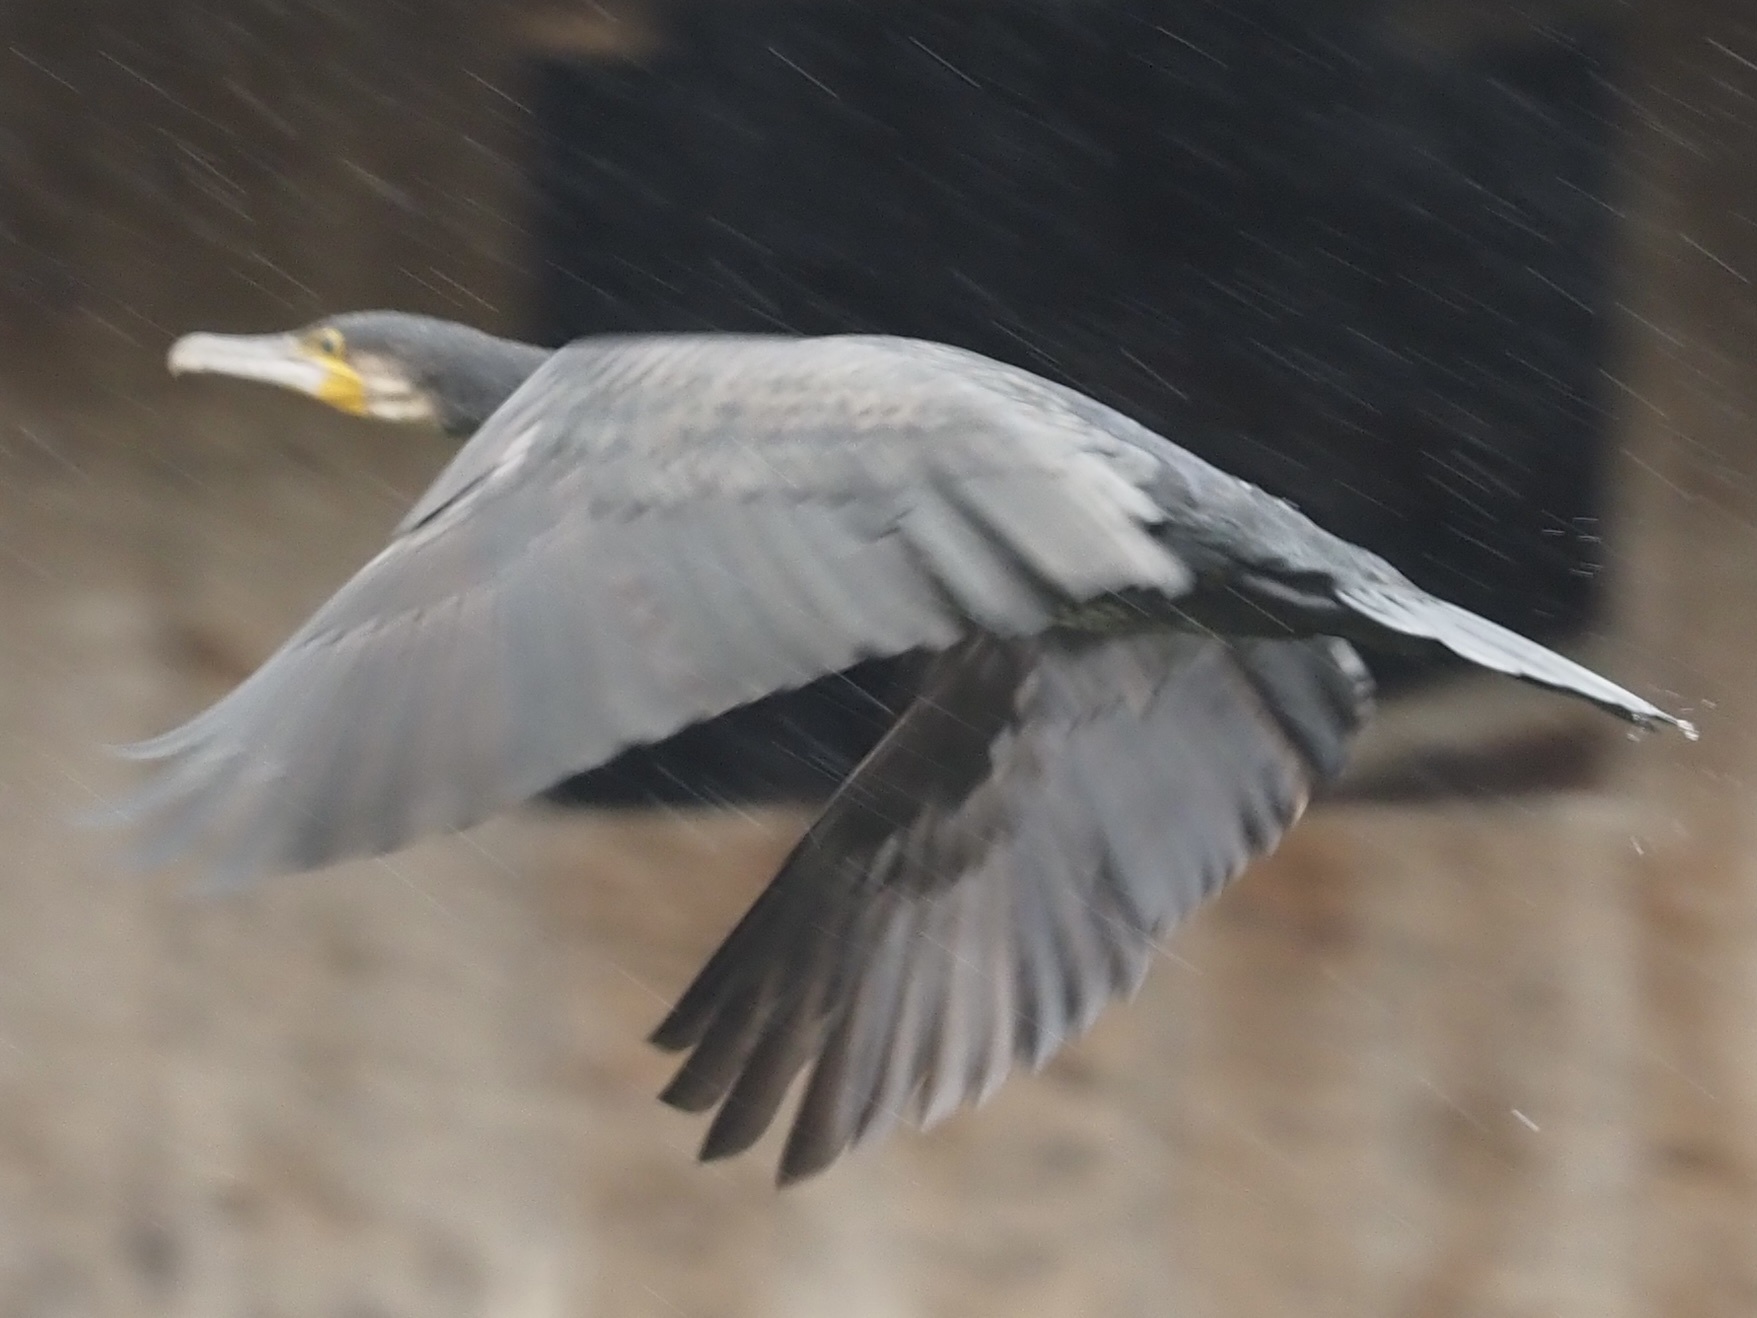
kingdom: Animalia
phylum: Chordata
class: Aves
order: Suliformes
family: Phalacrocoracidae
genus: Phalacrocorax
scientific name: Phalacrocorax carbo
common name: Great cormorant
